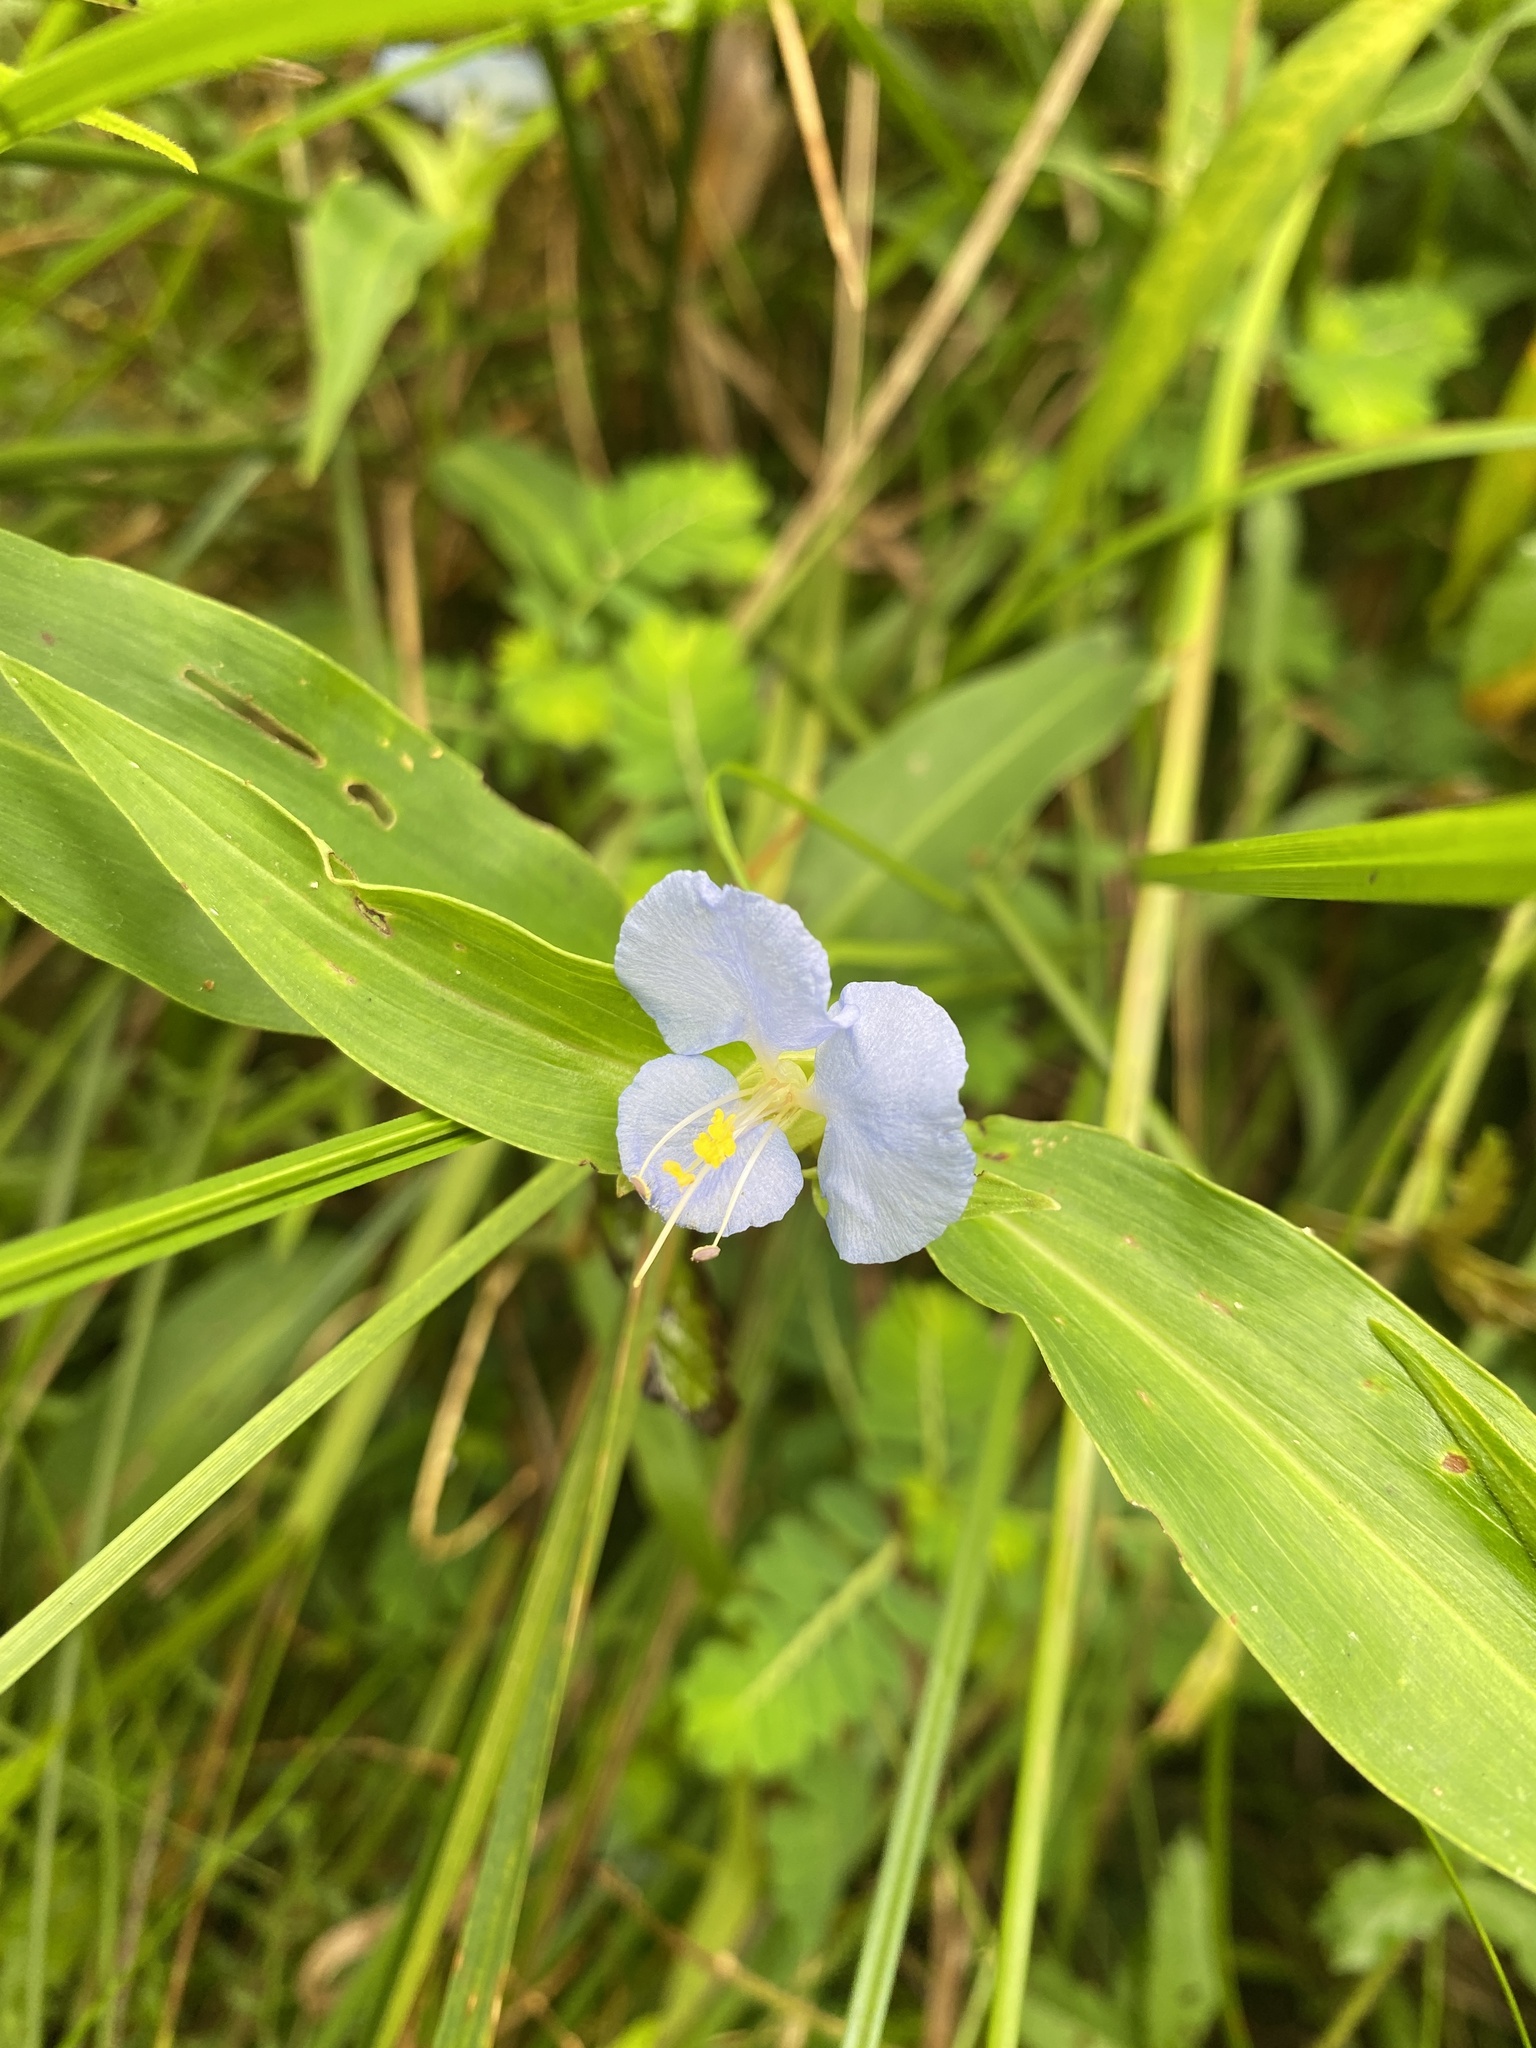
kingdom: Plantae
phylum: Tracheophyta
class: Liliopsida
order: Commelinales
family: Commelinaceae
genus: Commelina
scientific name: Commelina virginica
